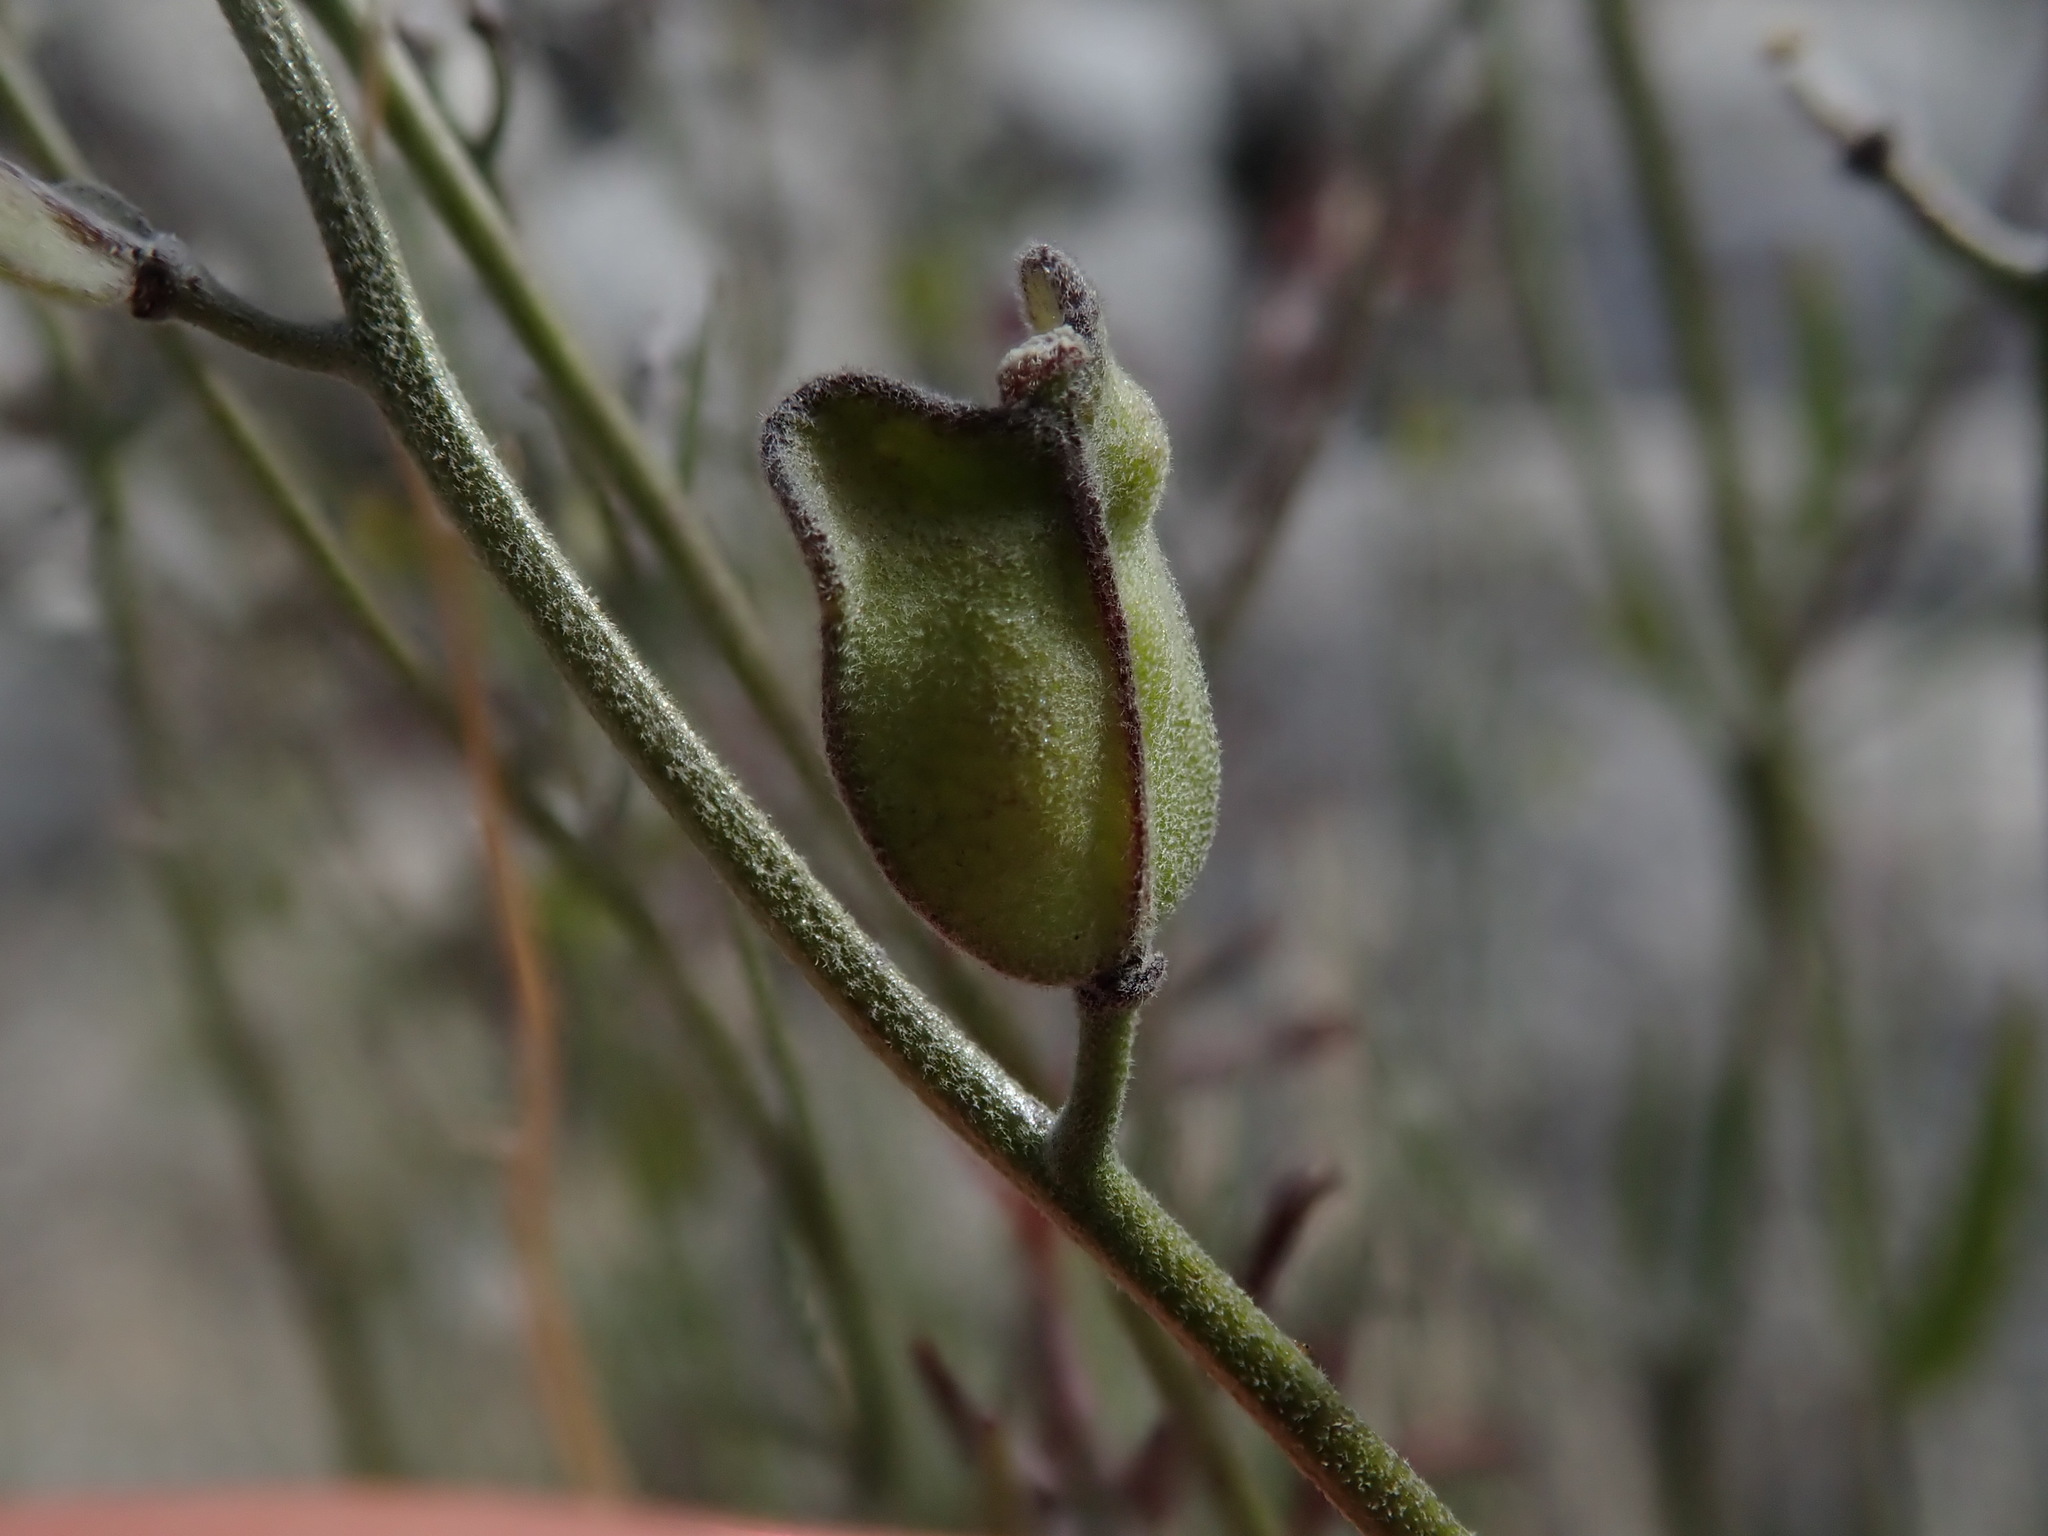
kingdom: Plantae
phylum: Tracheophyta
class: Magnoliopsida
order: Brassicales
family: Brassicaceae
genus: Lyrocarpa
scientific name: Lyrocarpa coulteri
